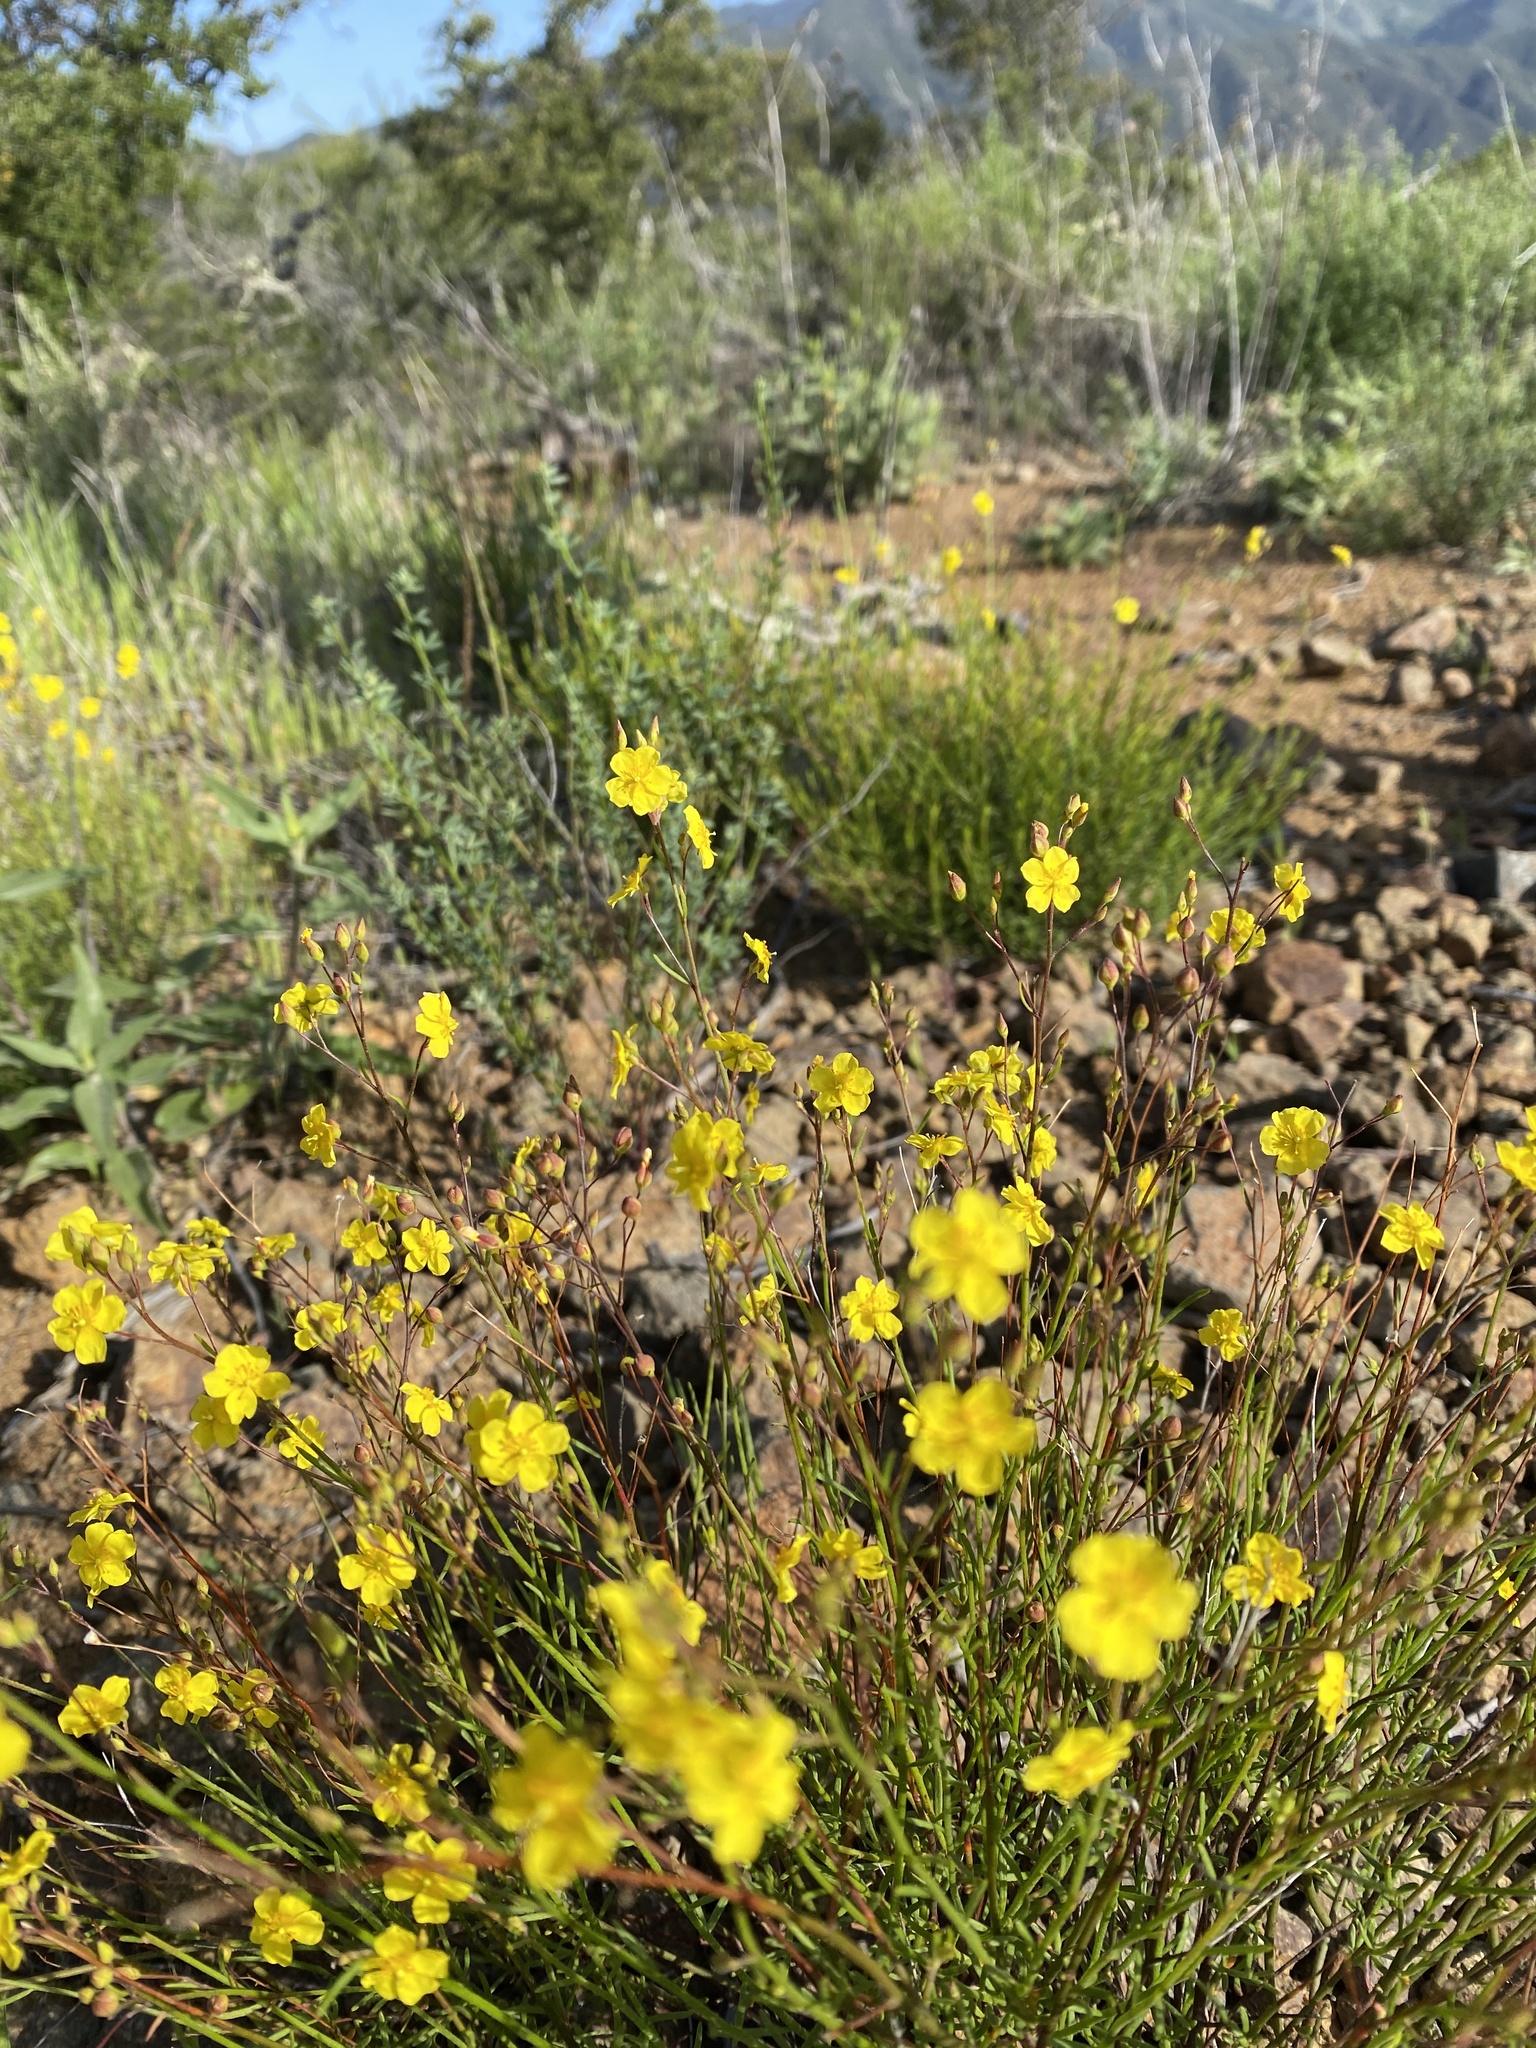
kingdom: Plantae
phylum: Tracheophyta
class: Magnoliopsida
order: Malvales
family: Cistaceae
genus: Crocanthemum
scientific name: Crocanthemum scoparium
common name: Broom-rose
